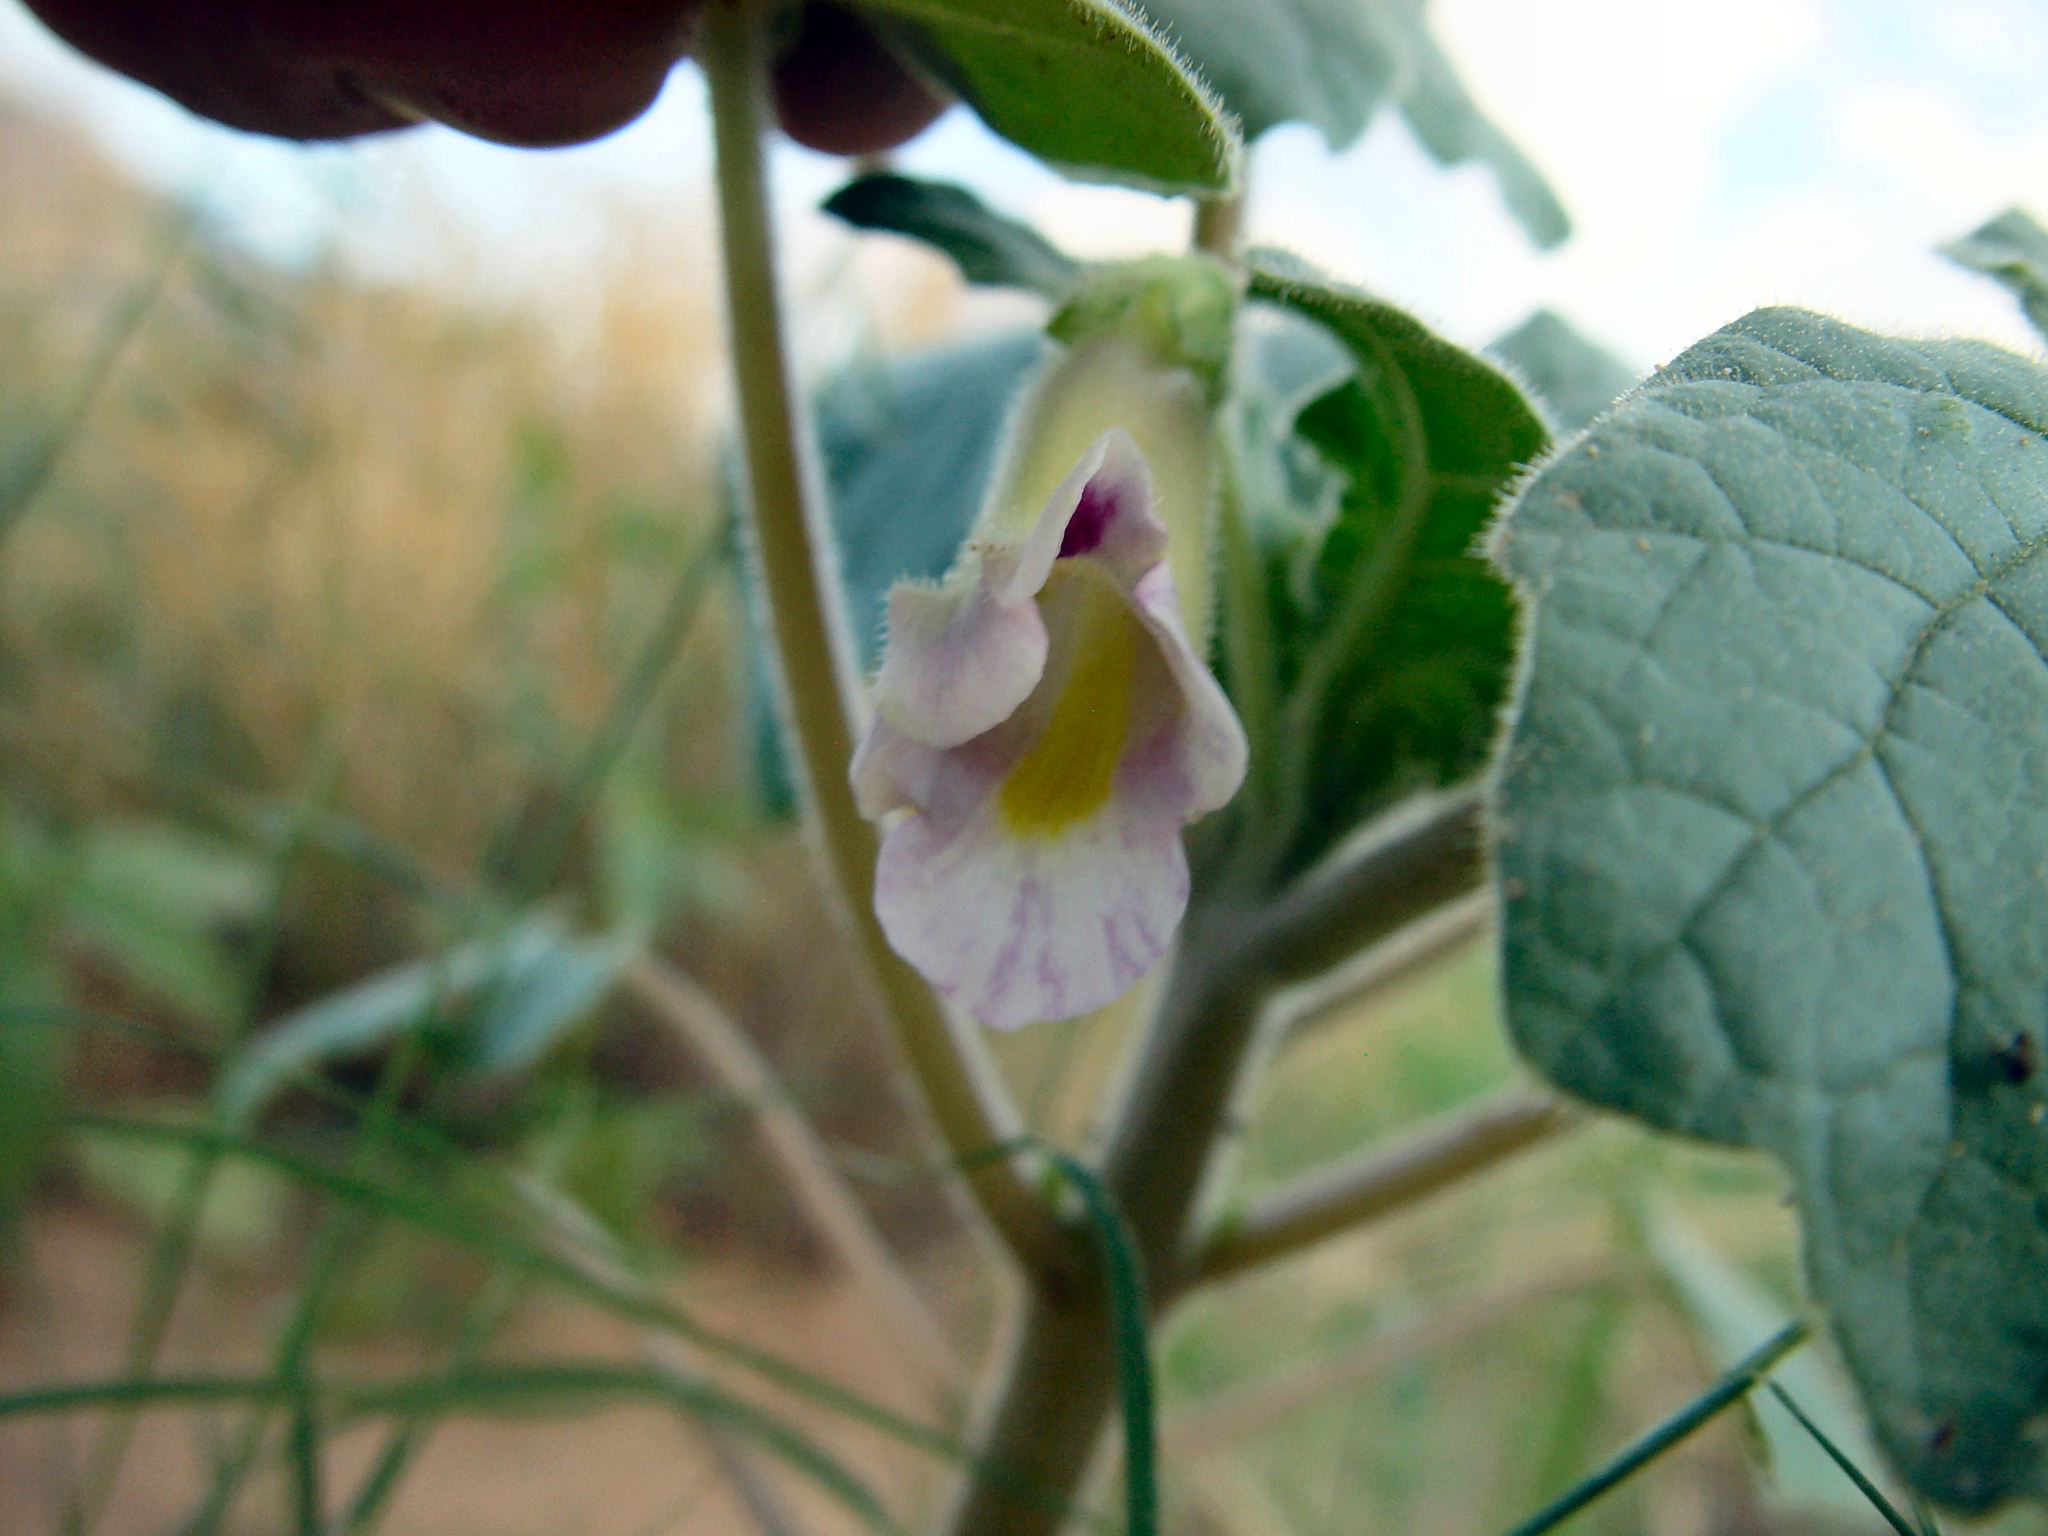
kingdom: Plantae
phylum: Tracheophyta
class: Magnoliopsida
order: Lamiales
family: Martyniaceae
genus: Proboscidea
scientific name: Proboscidea parviflora
